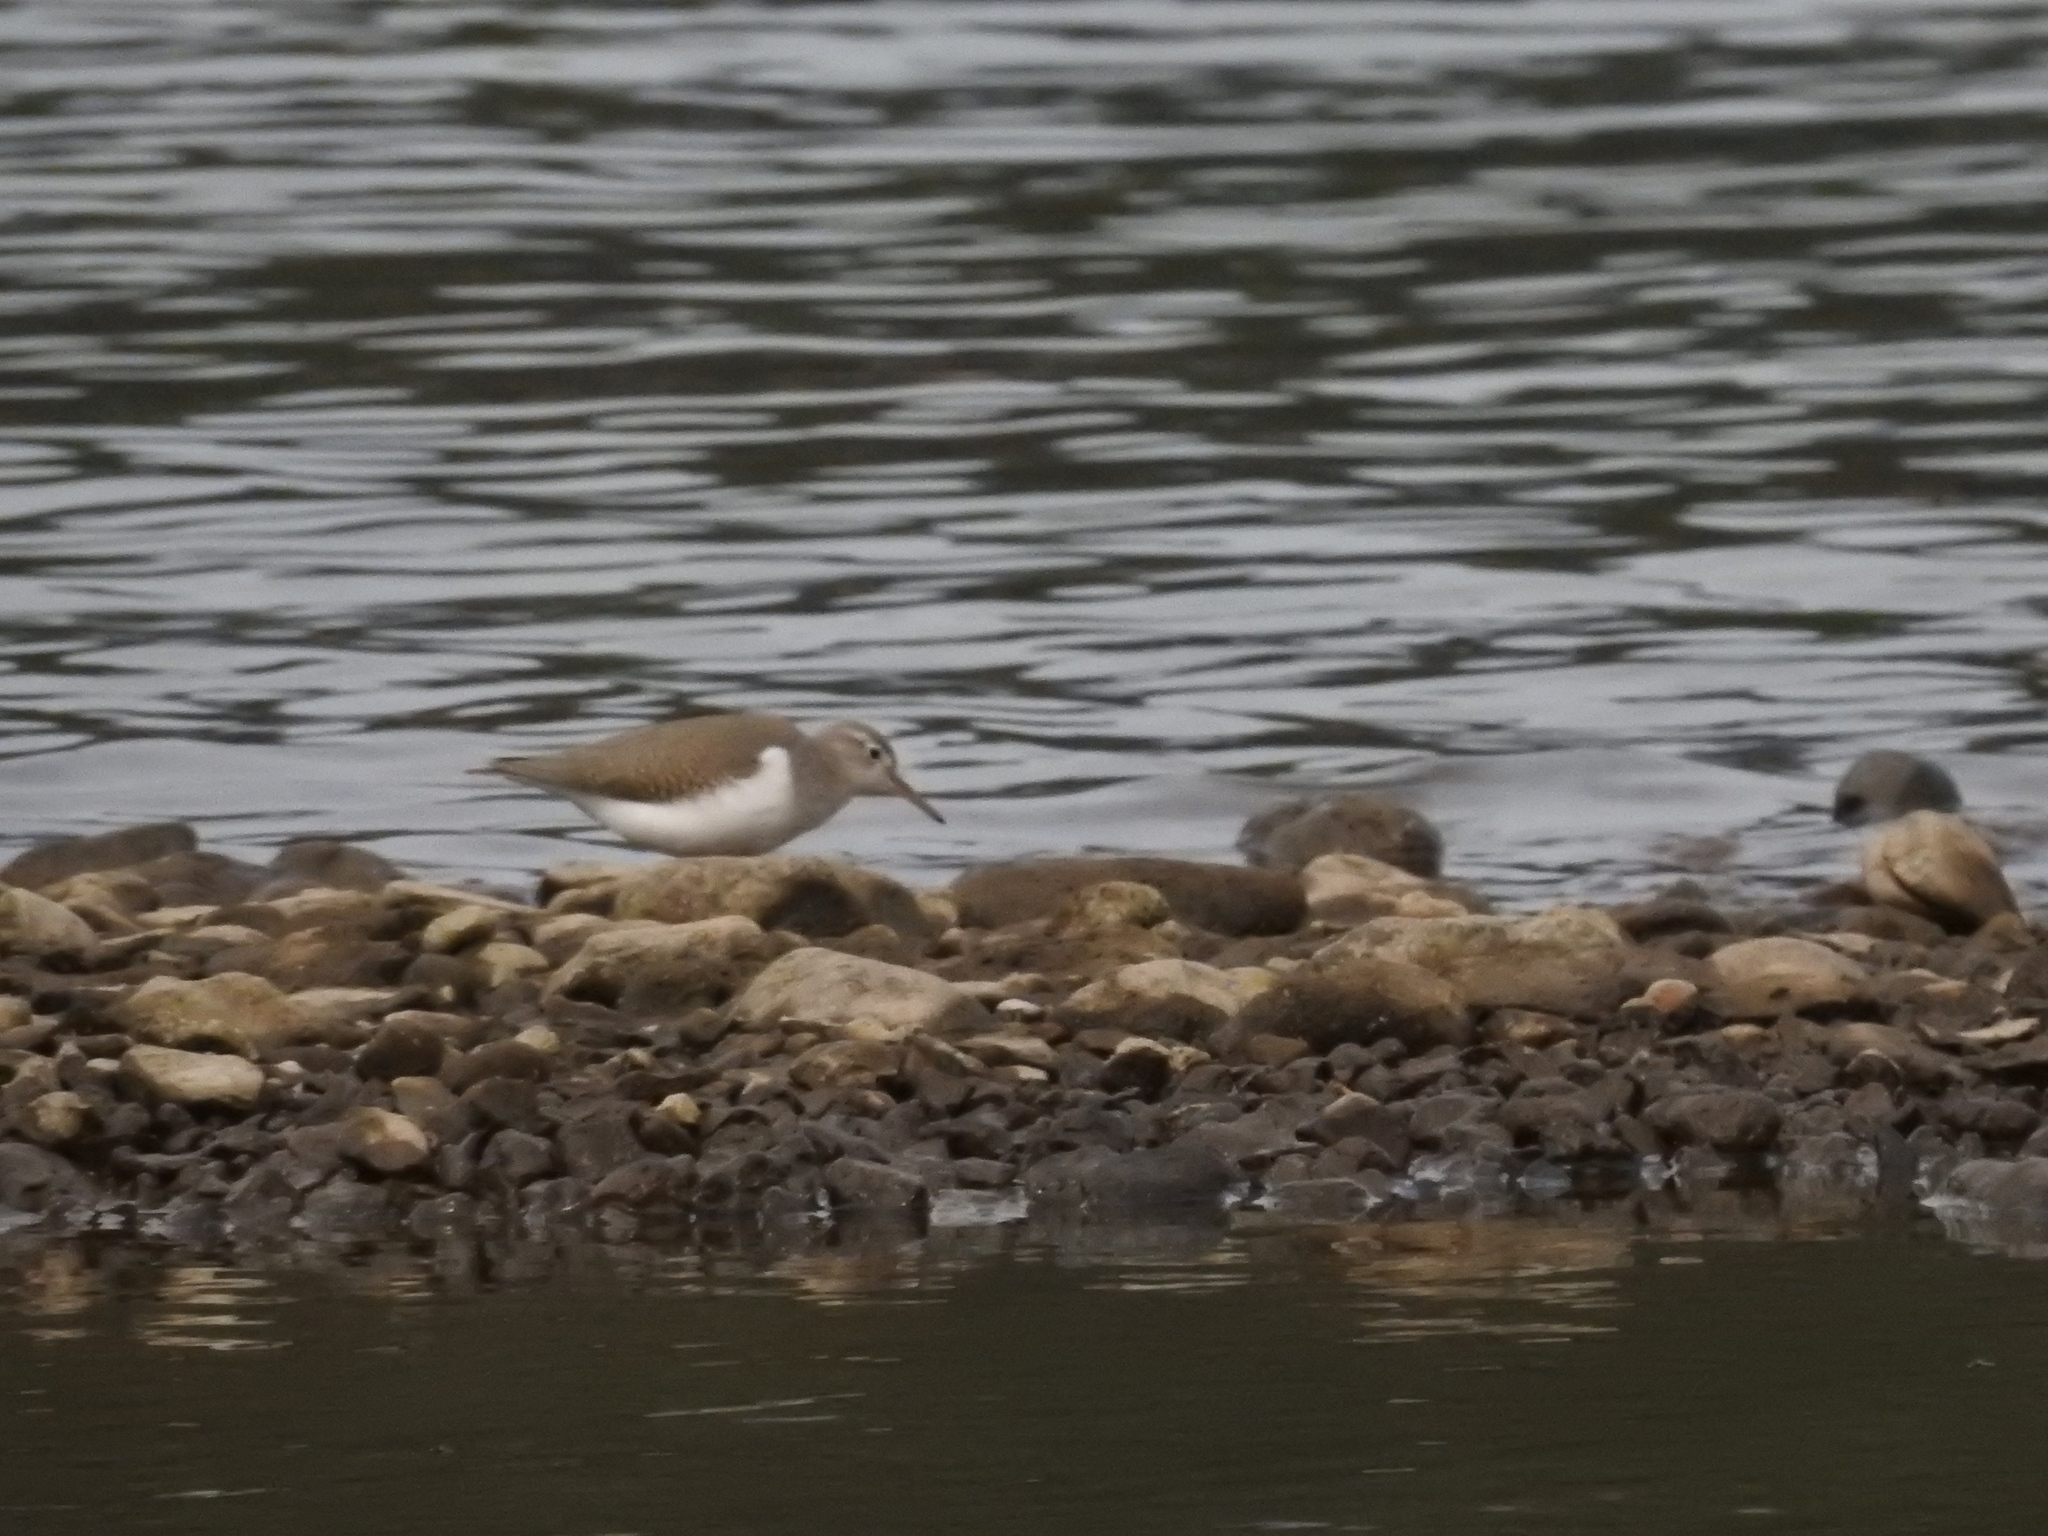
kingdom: Animalia
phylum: Chordata
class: Aves
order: Charadriiformes
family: Scolopacidae
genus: Actitis
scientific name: Actitis macularius
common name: Spotted sandpiper
